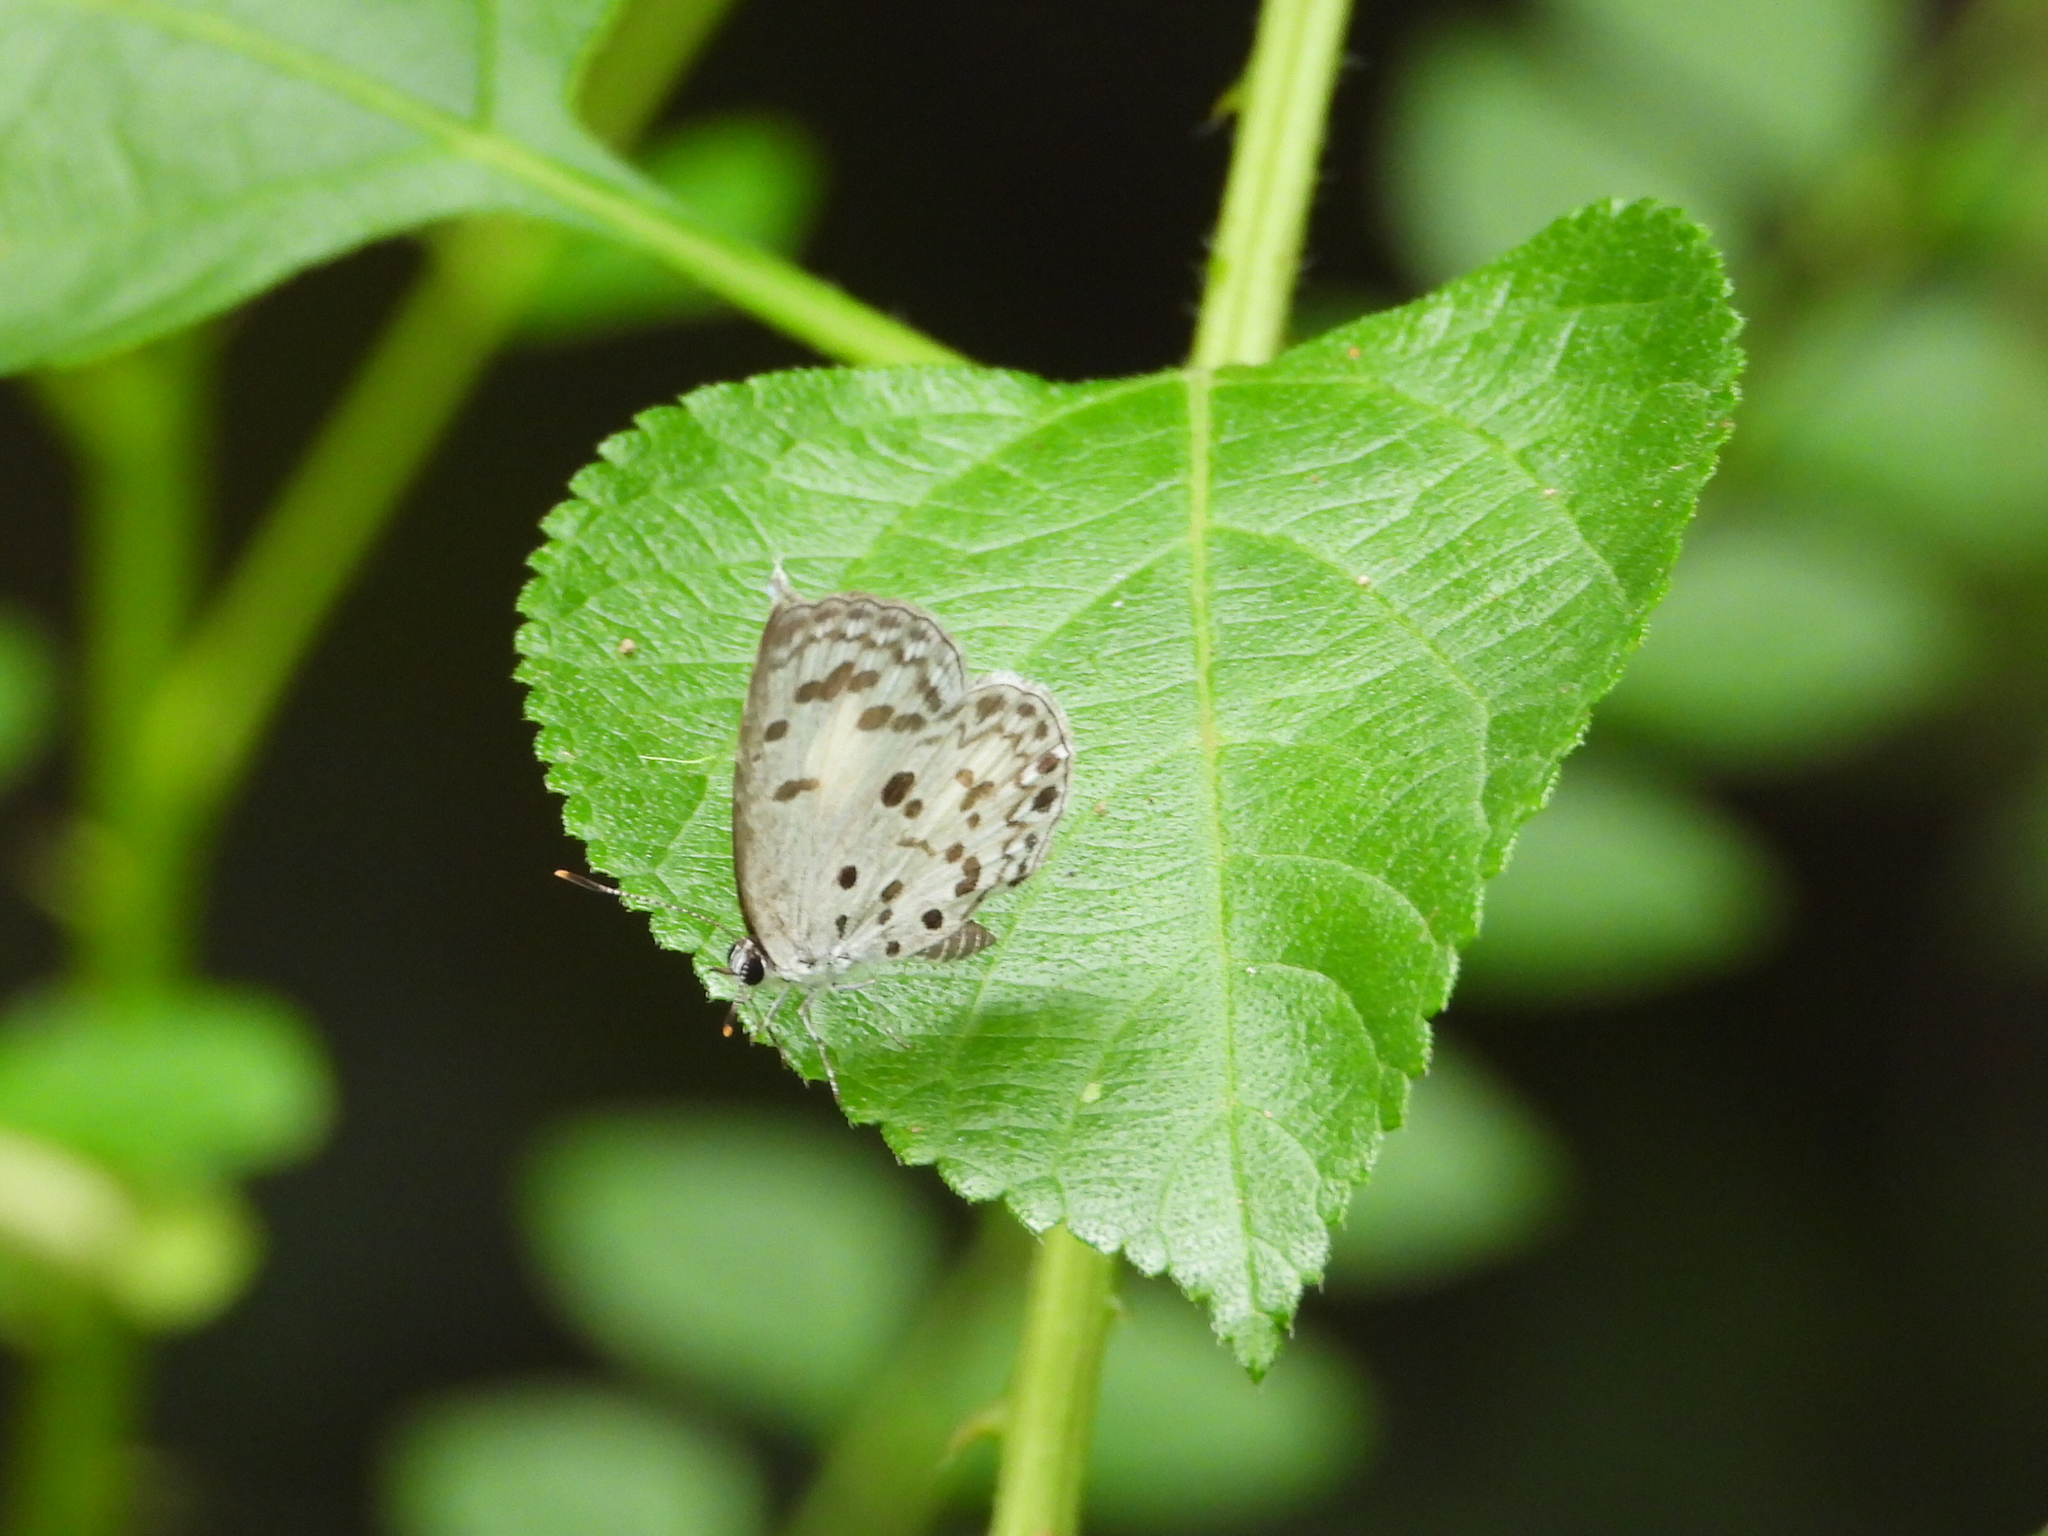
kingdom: Animalia
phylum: Arthropoda
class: Insecta
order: Lepidoptera
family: Lycaenidae
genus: Acytolepis
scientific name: Acytolepis puspa
